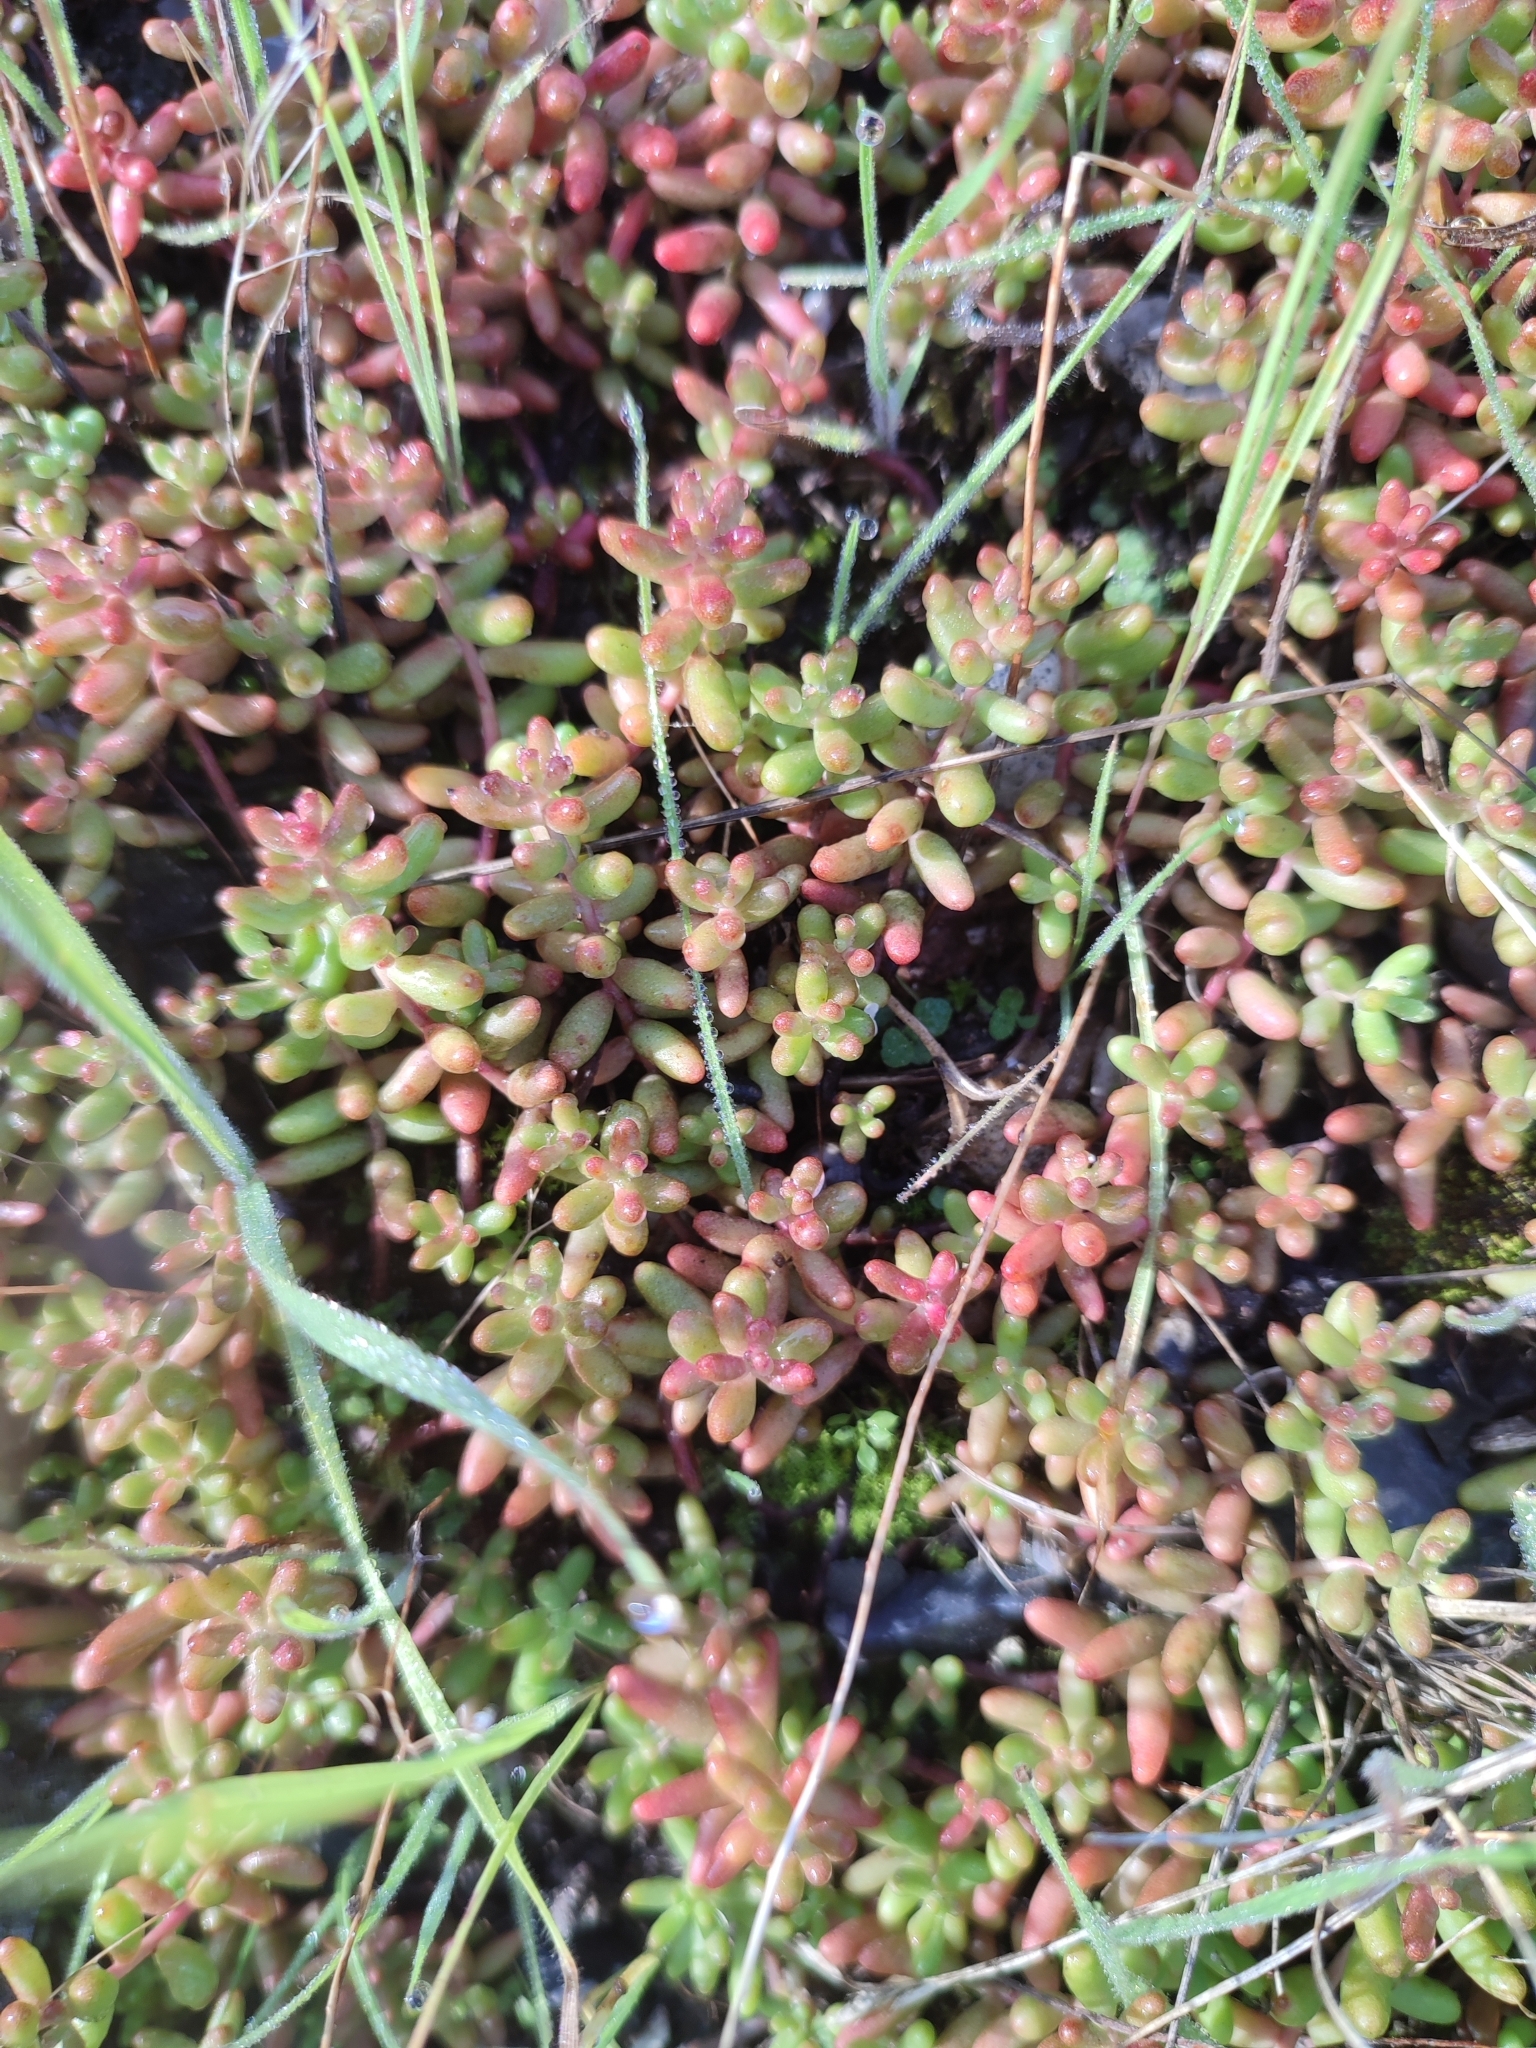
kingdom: Plantae
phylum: Tracheophyta
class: Magnoliopsida
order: Saxifragales
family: Crassulaceae
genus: Sedum
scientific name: Sedum album
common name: White stonecrop
